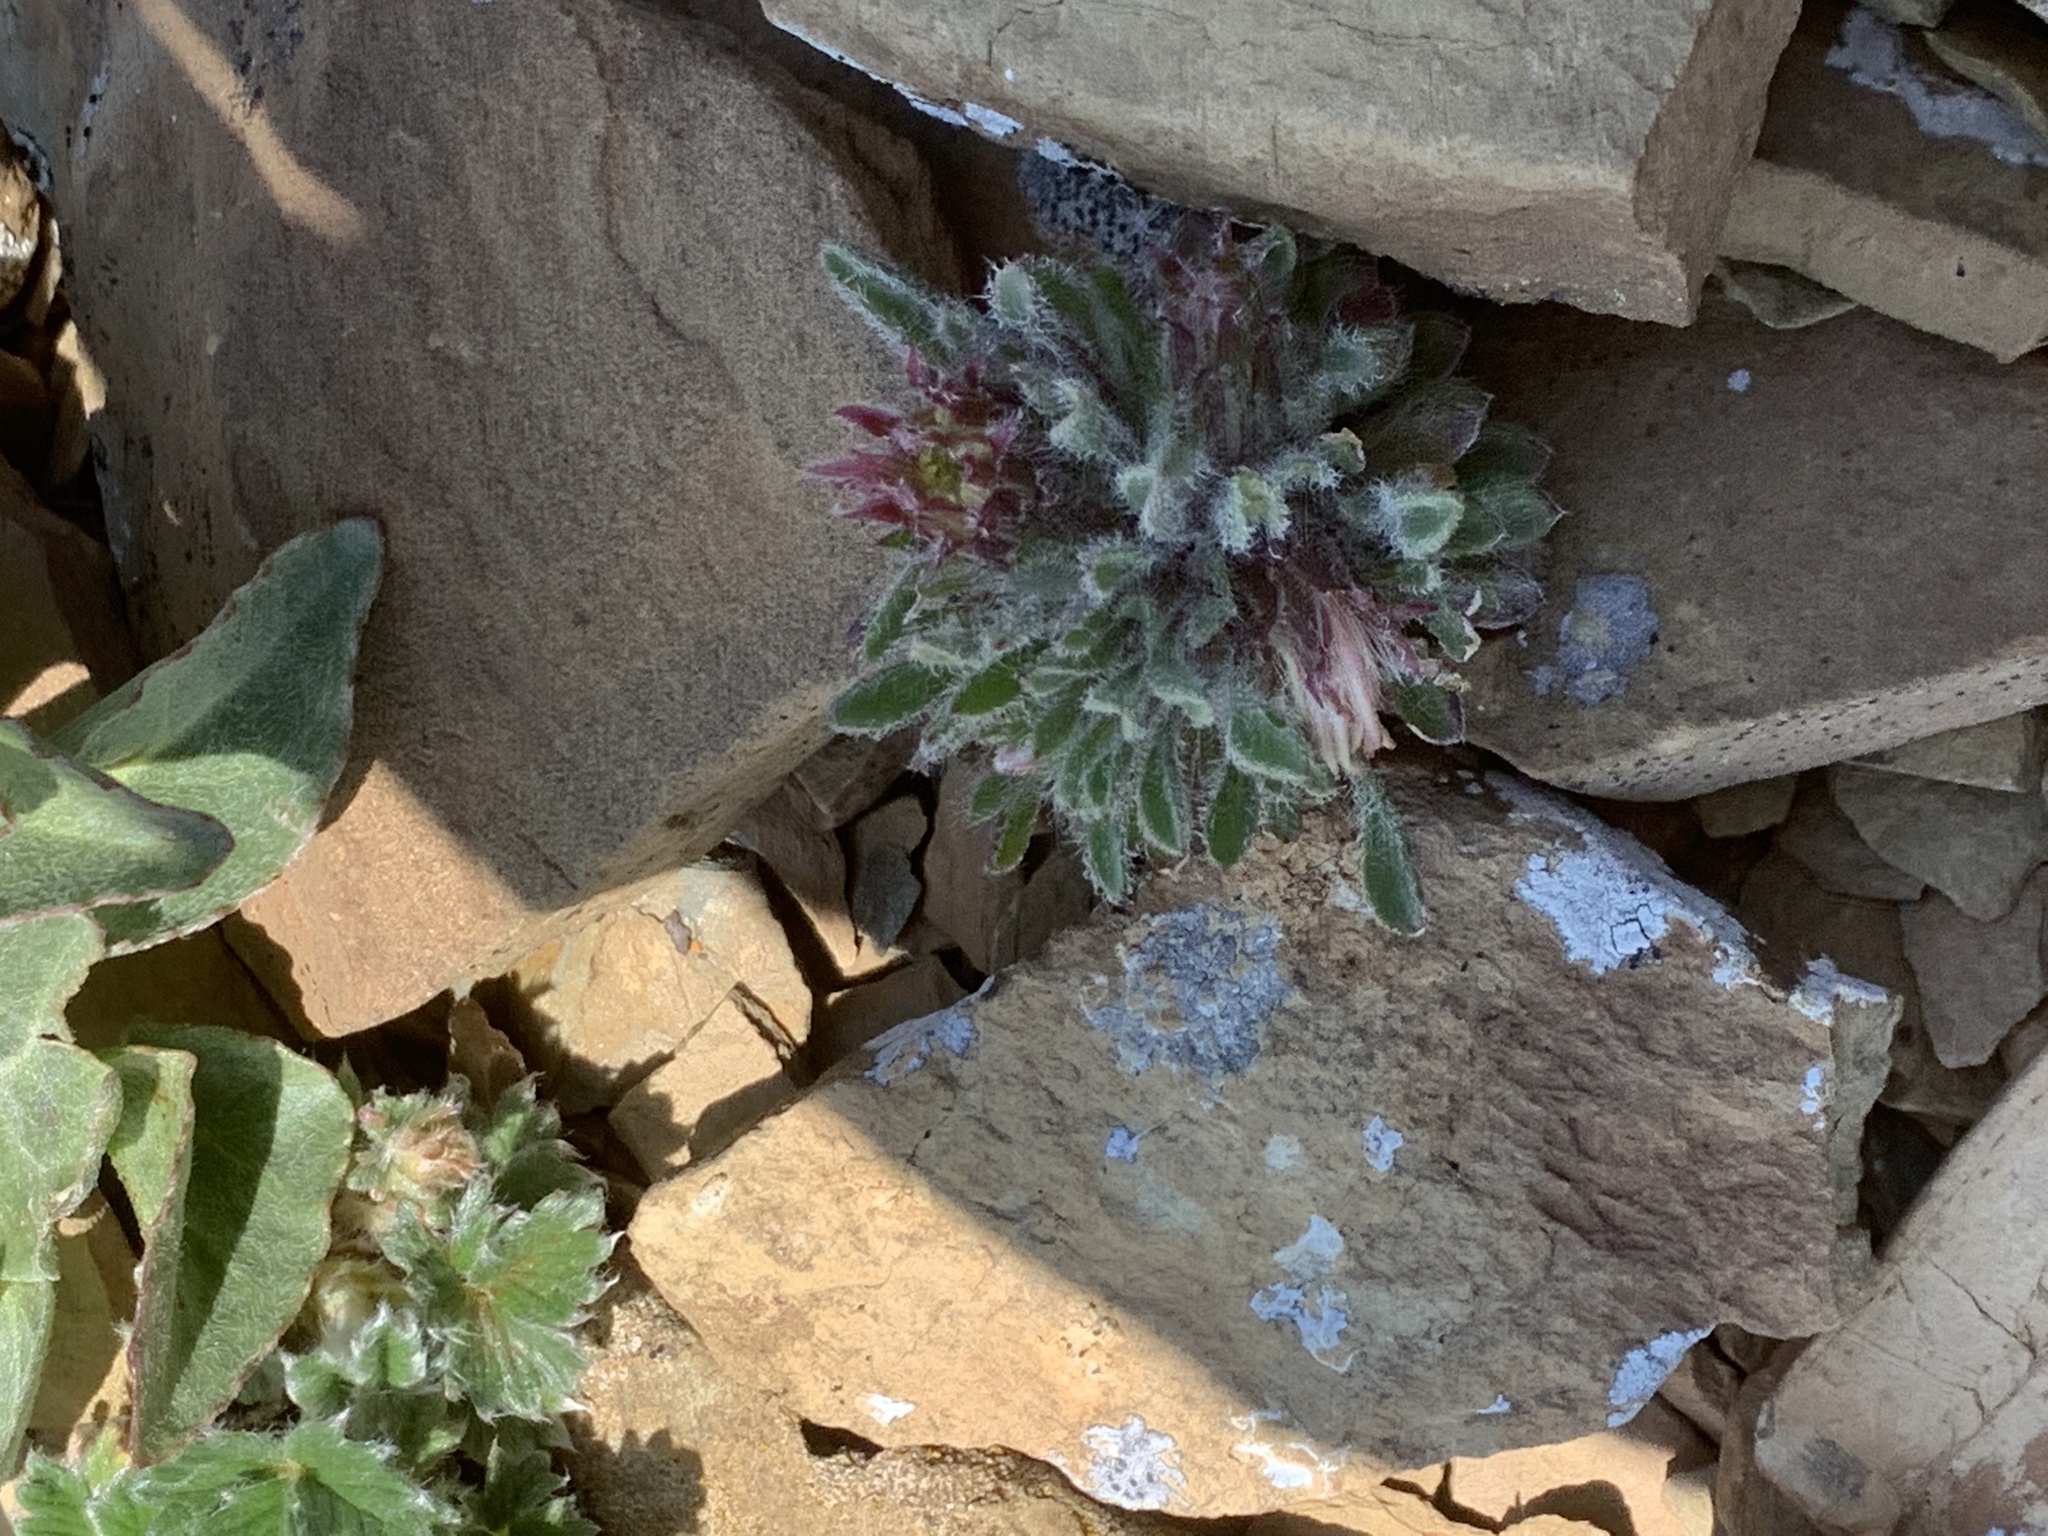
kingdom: Plantae
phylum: Tracheophyta
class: Magnoliopsida
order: Asterales
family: Asteraceae
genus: Townsendia
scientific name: Townsendia condensata
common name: Alpine townsend daisy
